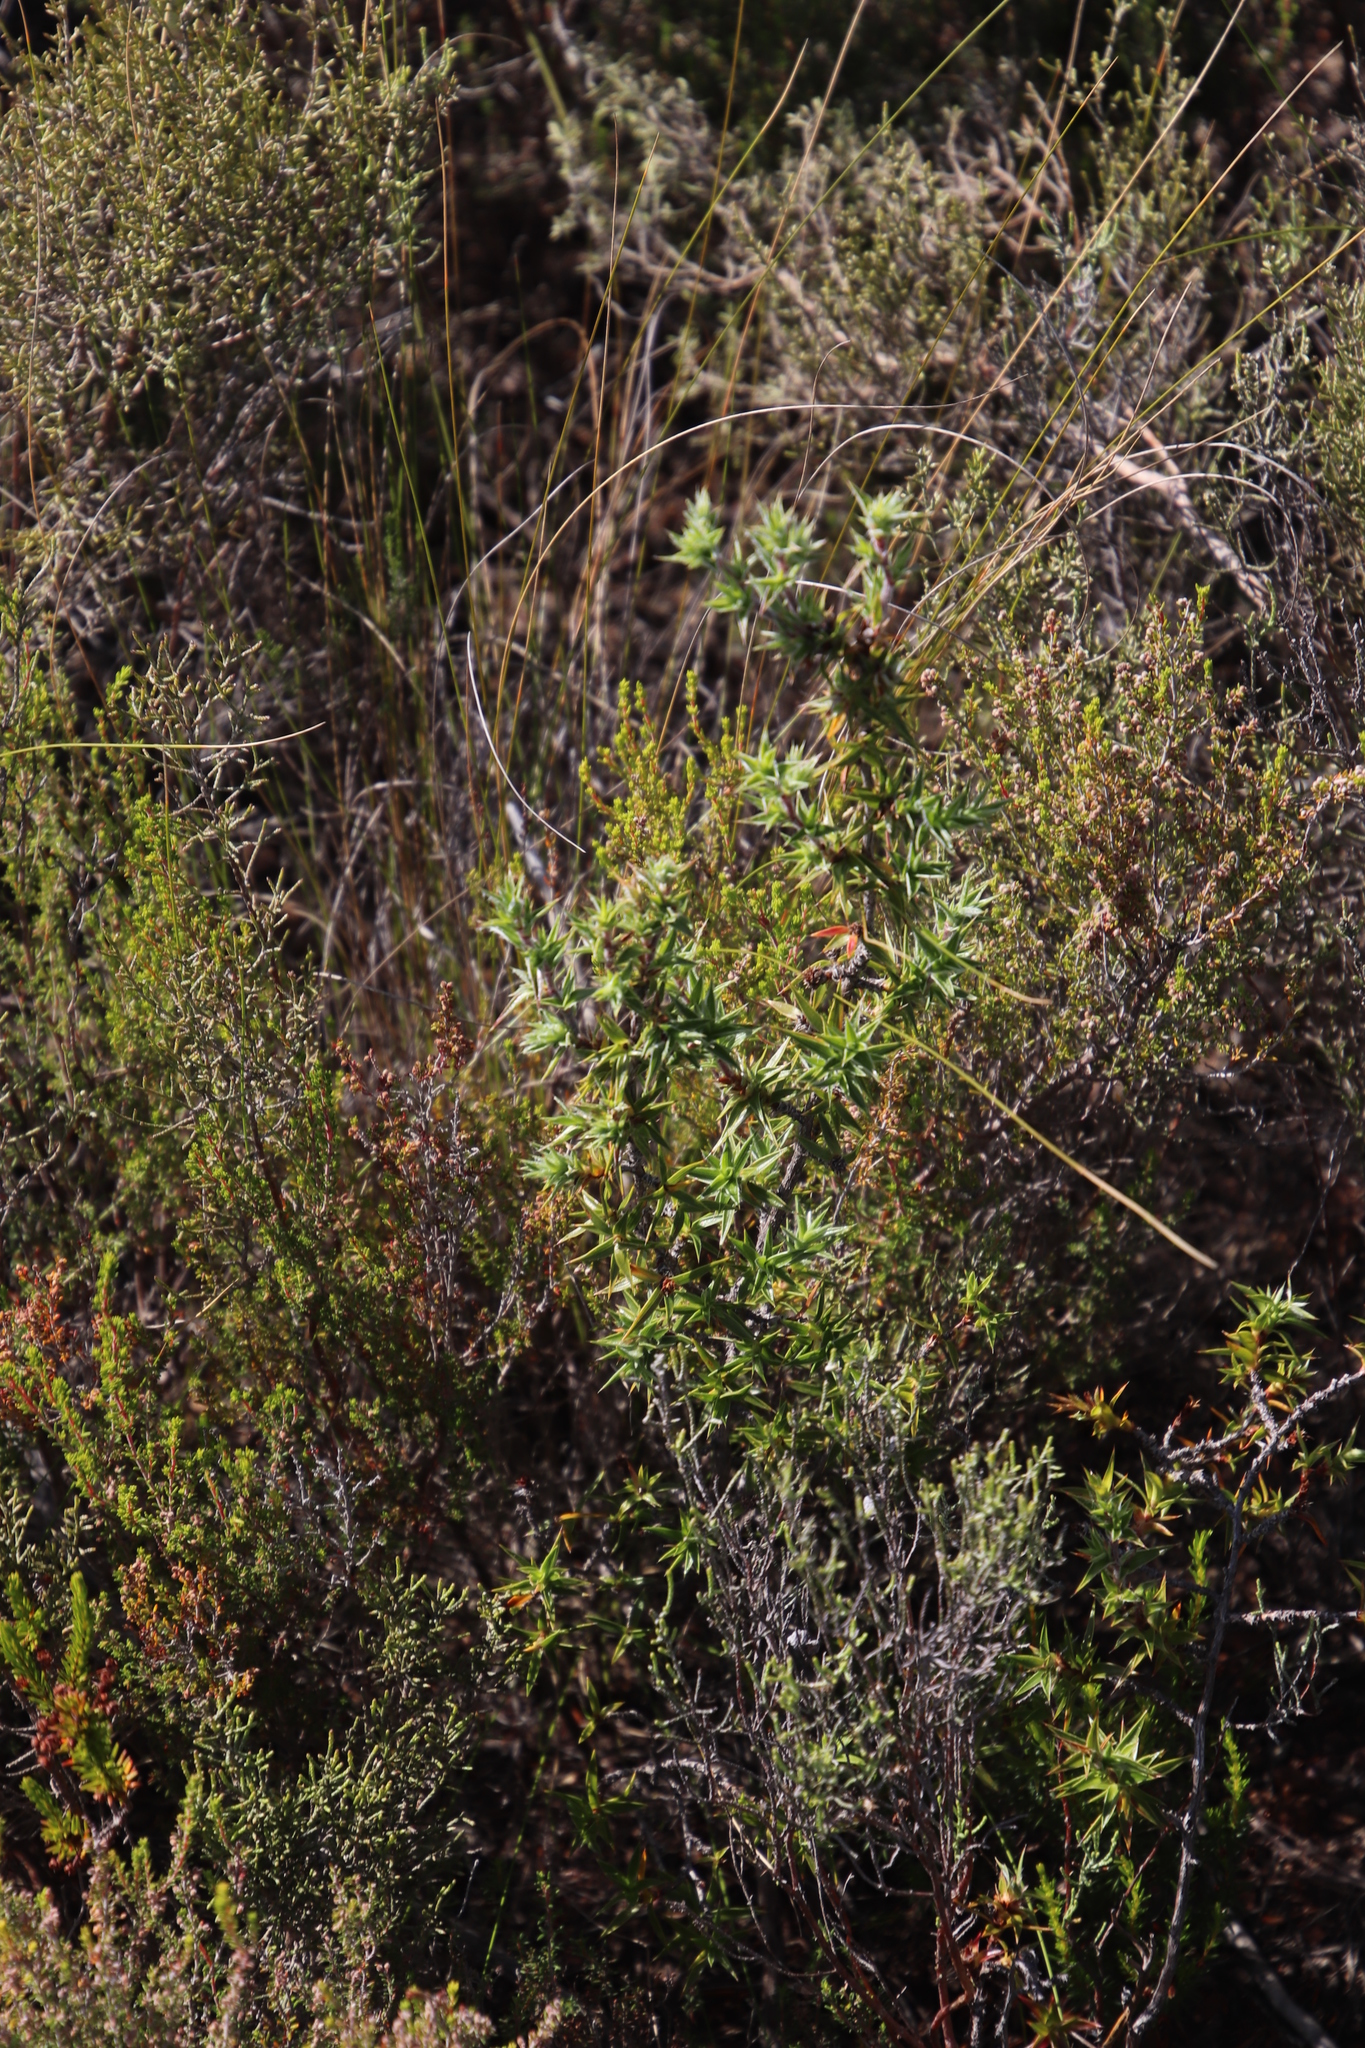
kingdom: Plantae
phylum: Tracheophyta
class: Magnoliopsida
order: Rosales
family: Rosaceae
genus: Cliffortia
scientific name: Cliffortia ruscifolia
